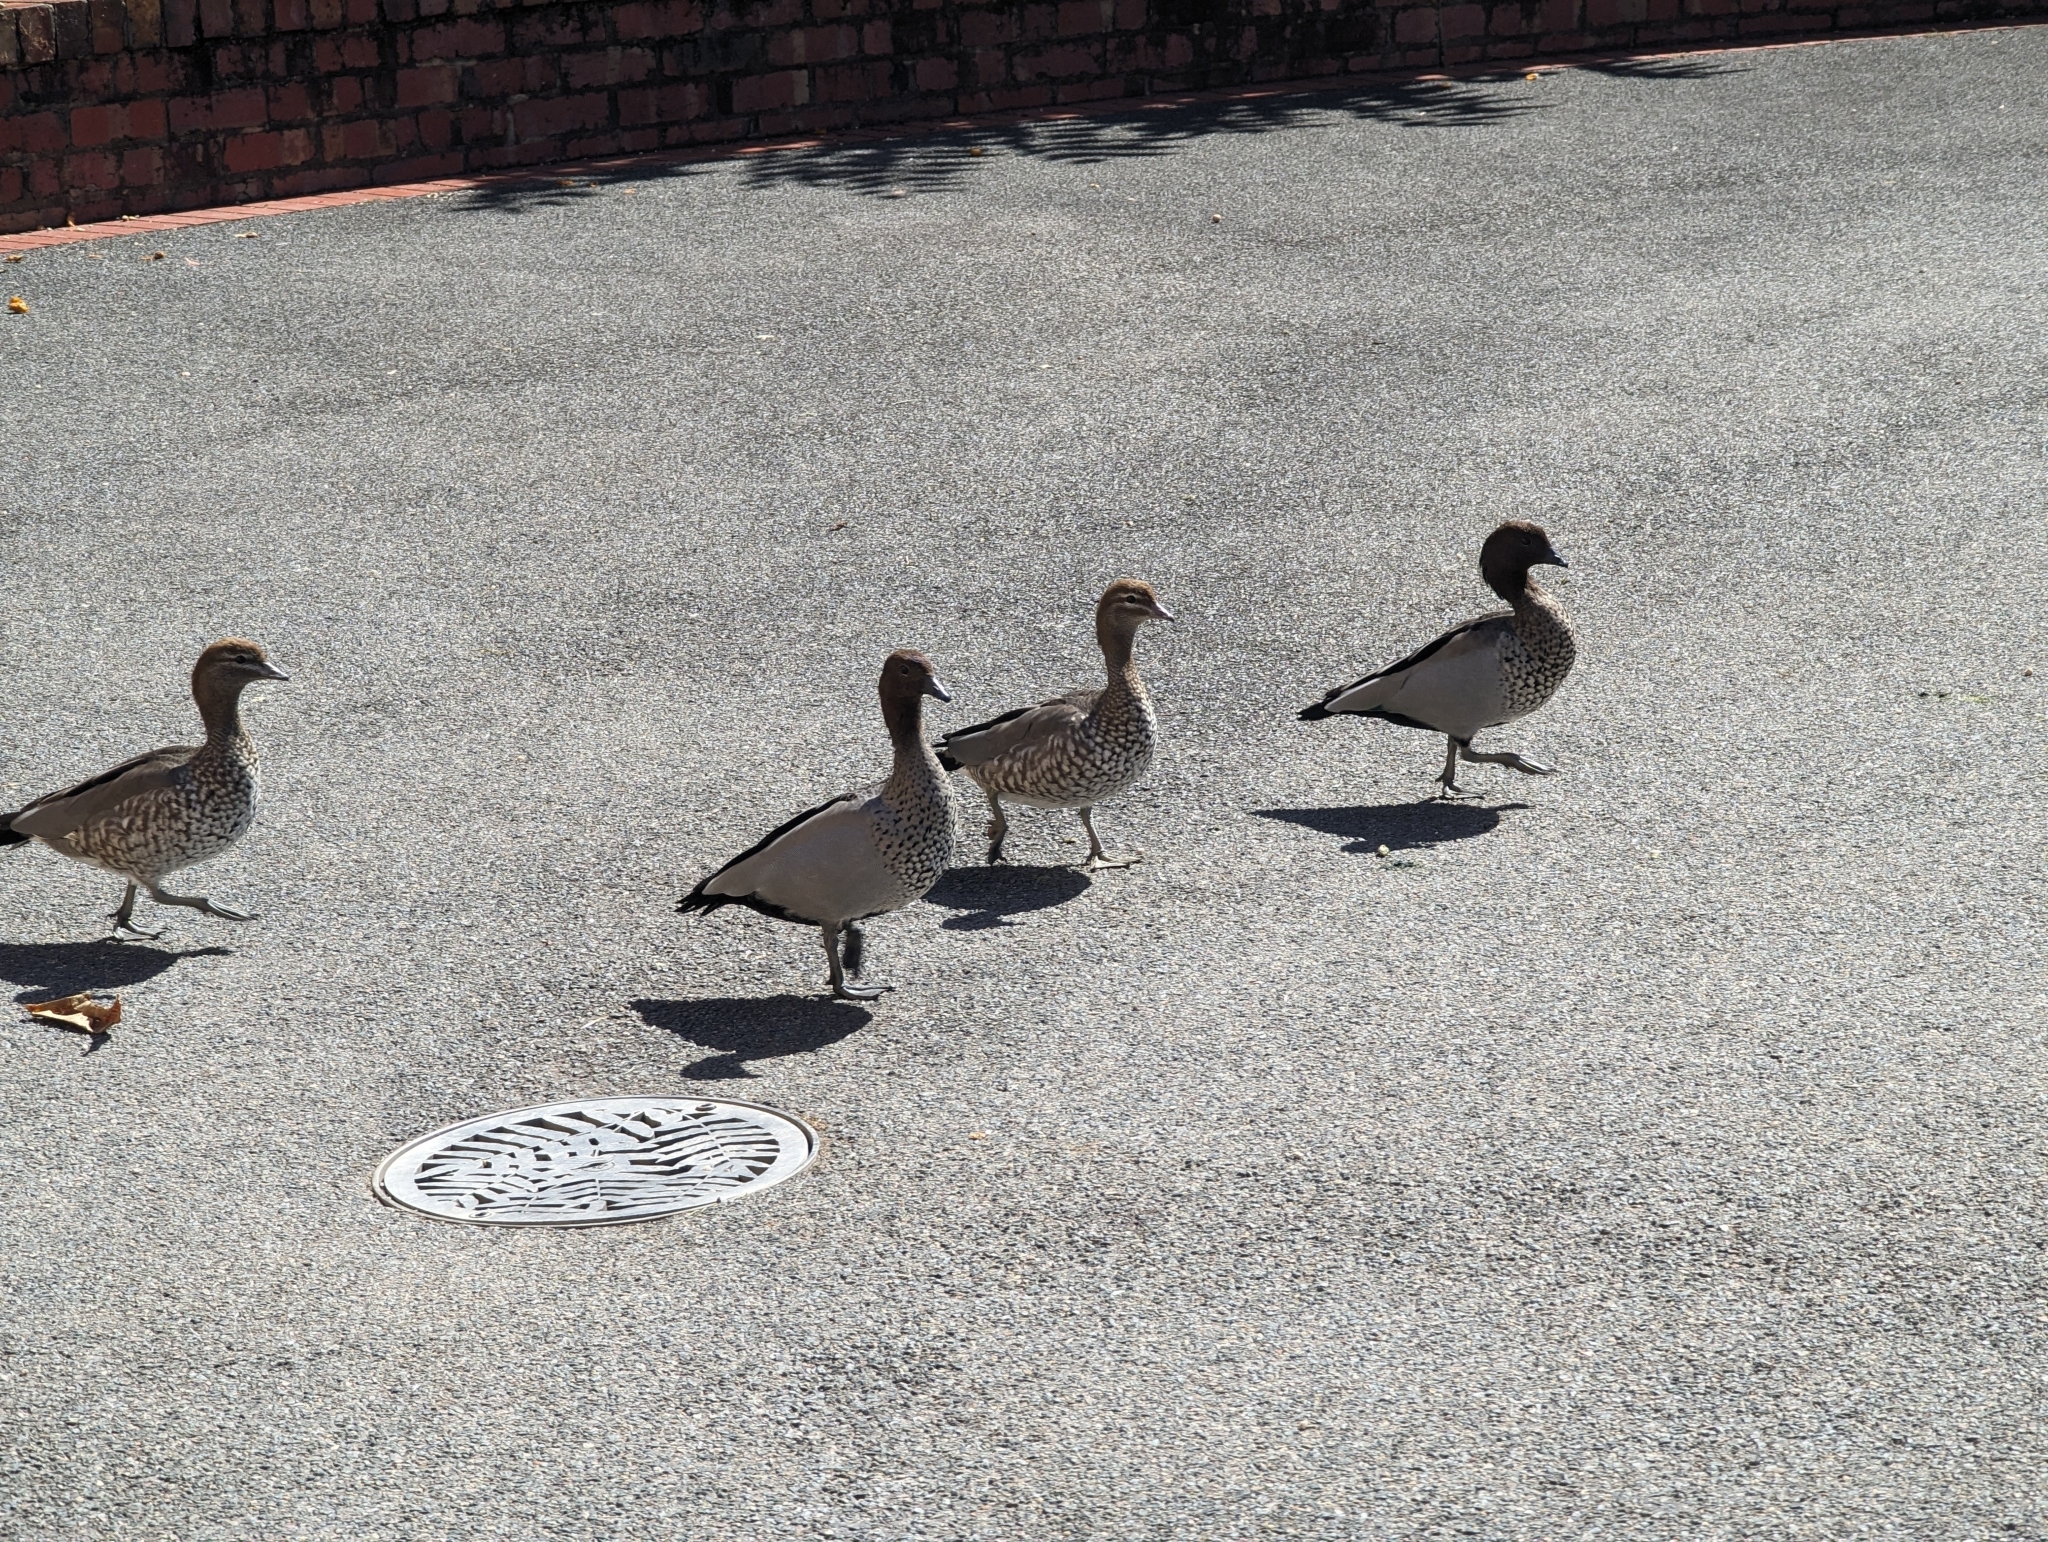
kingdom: Animalia
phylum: Chordata
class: Aves
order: Anseriformes
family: Anatidae
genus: Chenonetta
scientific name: Chenonetta jubata
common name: Maned duck
